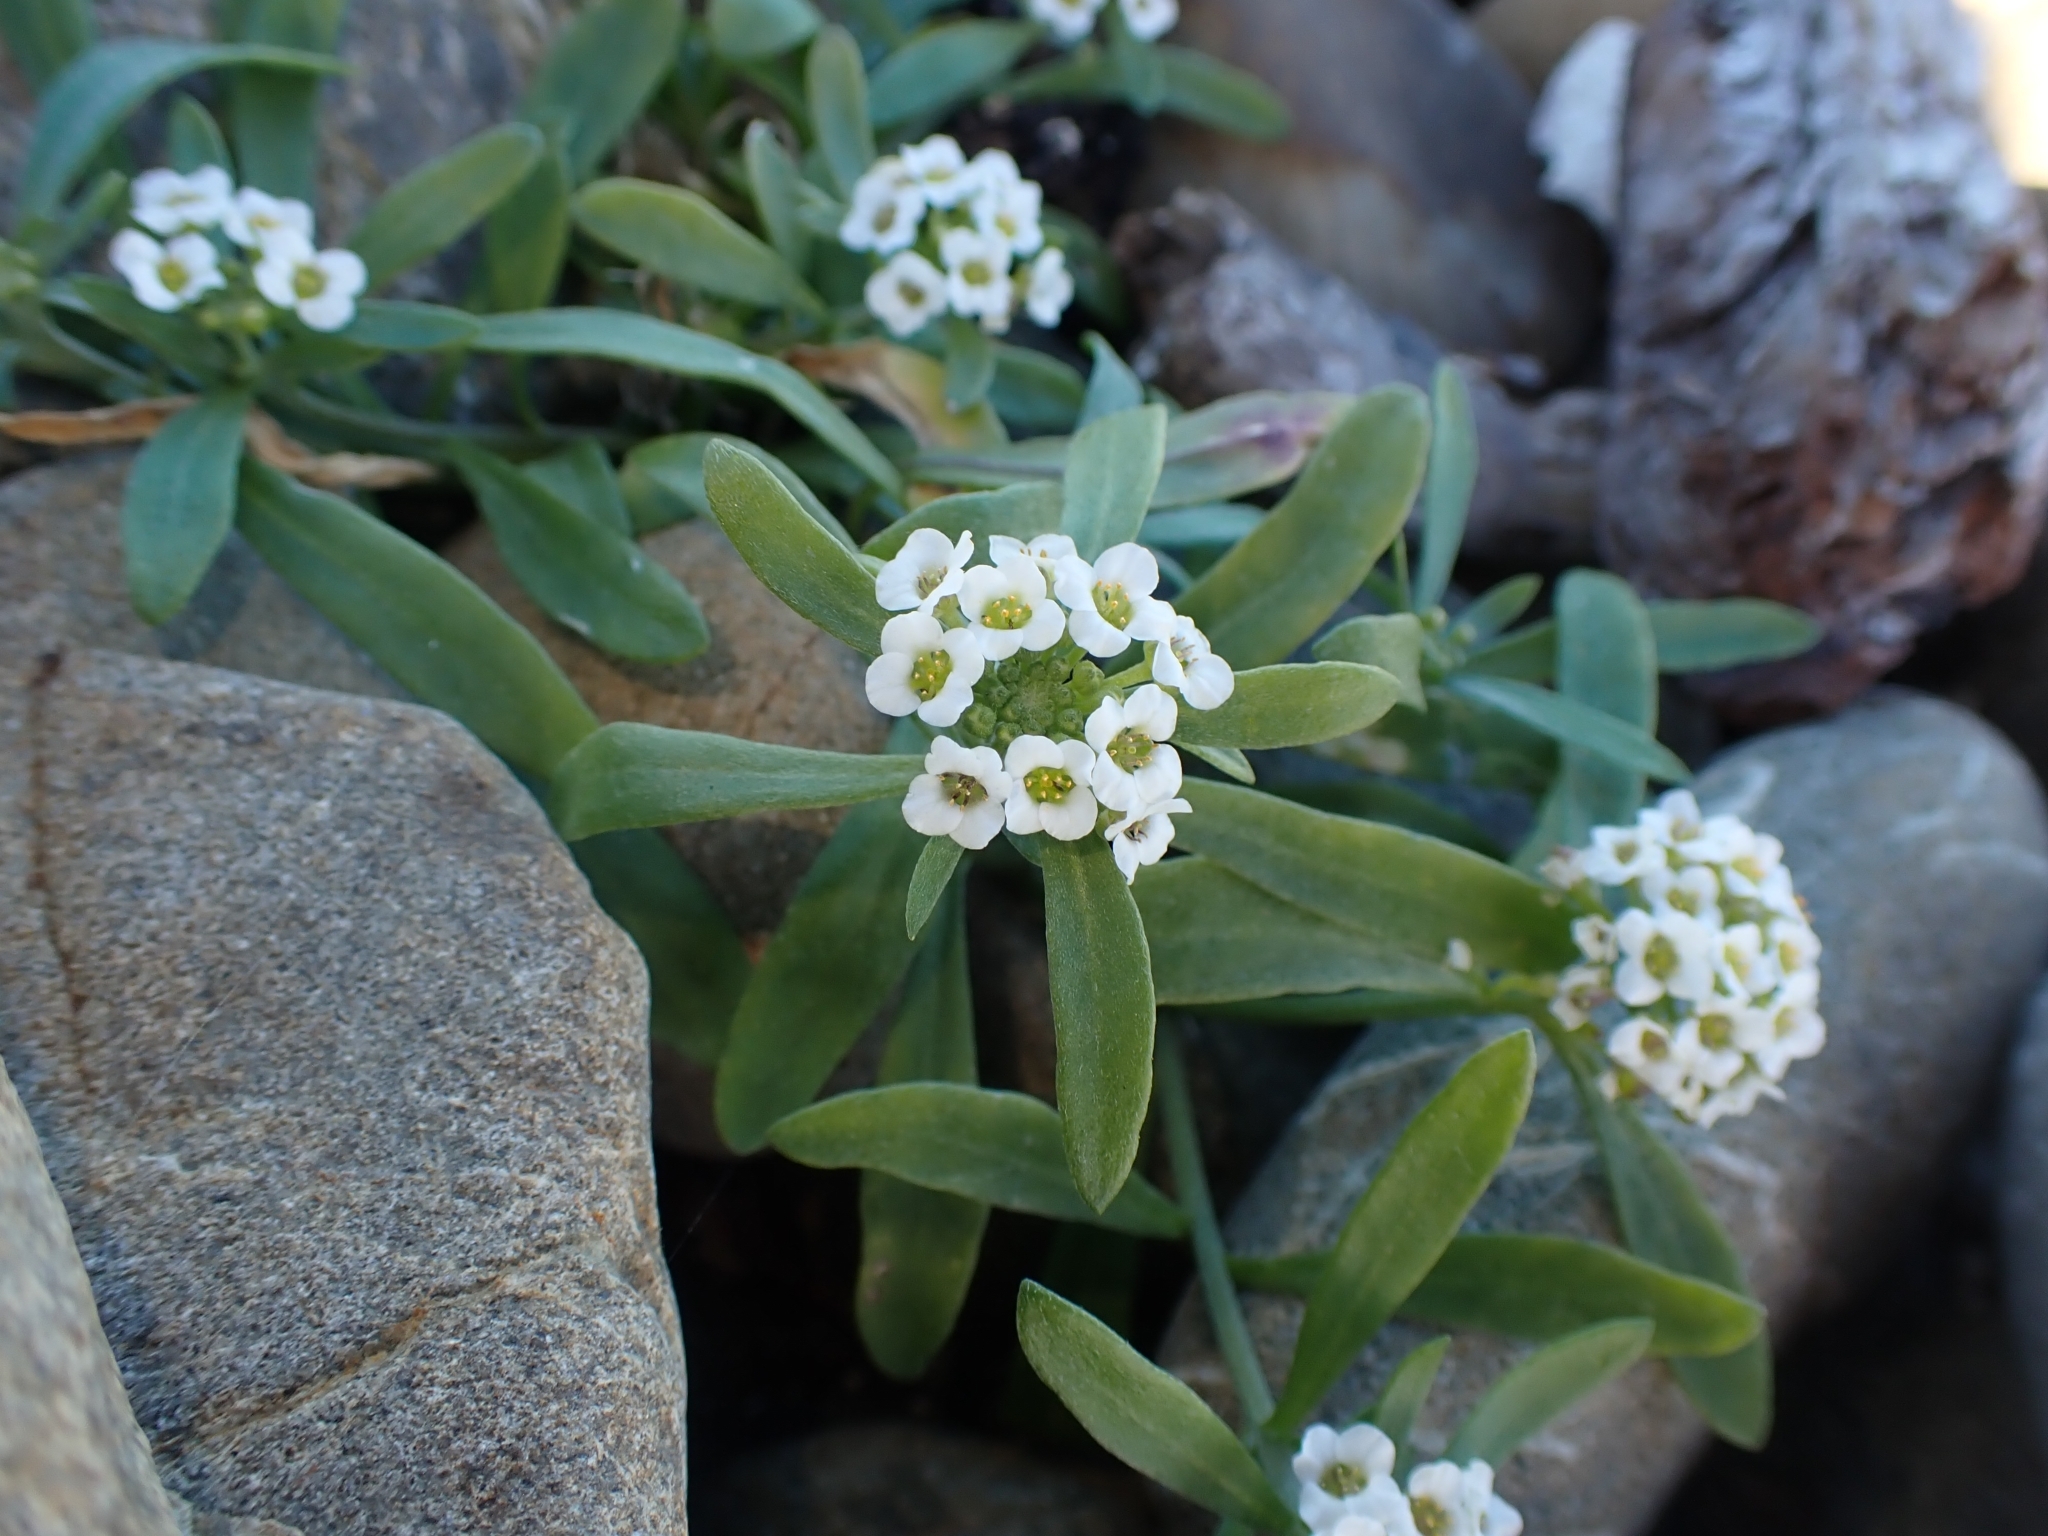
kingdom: Plantae
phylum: Tracheophyta
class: Magnoliopsida
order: Brassicales
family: Brassicaceae
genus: Lobularia
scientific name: Lobularia maritima
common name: Sweet alison
